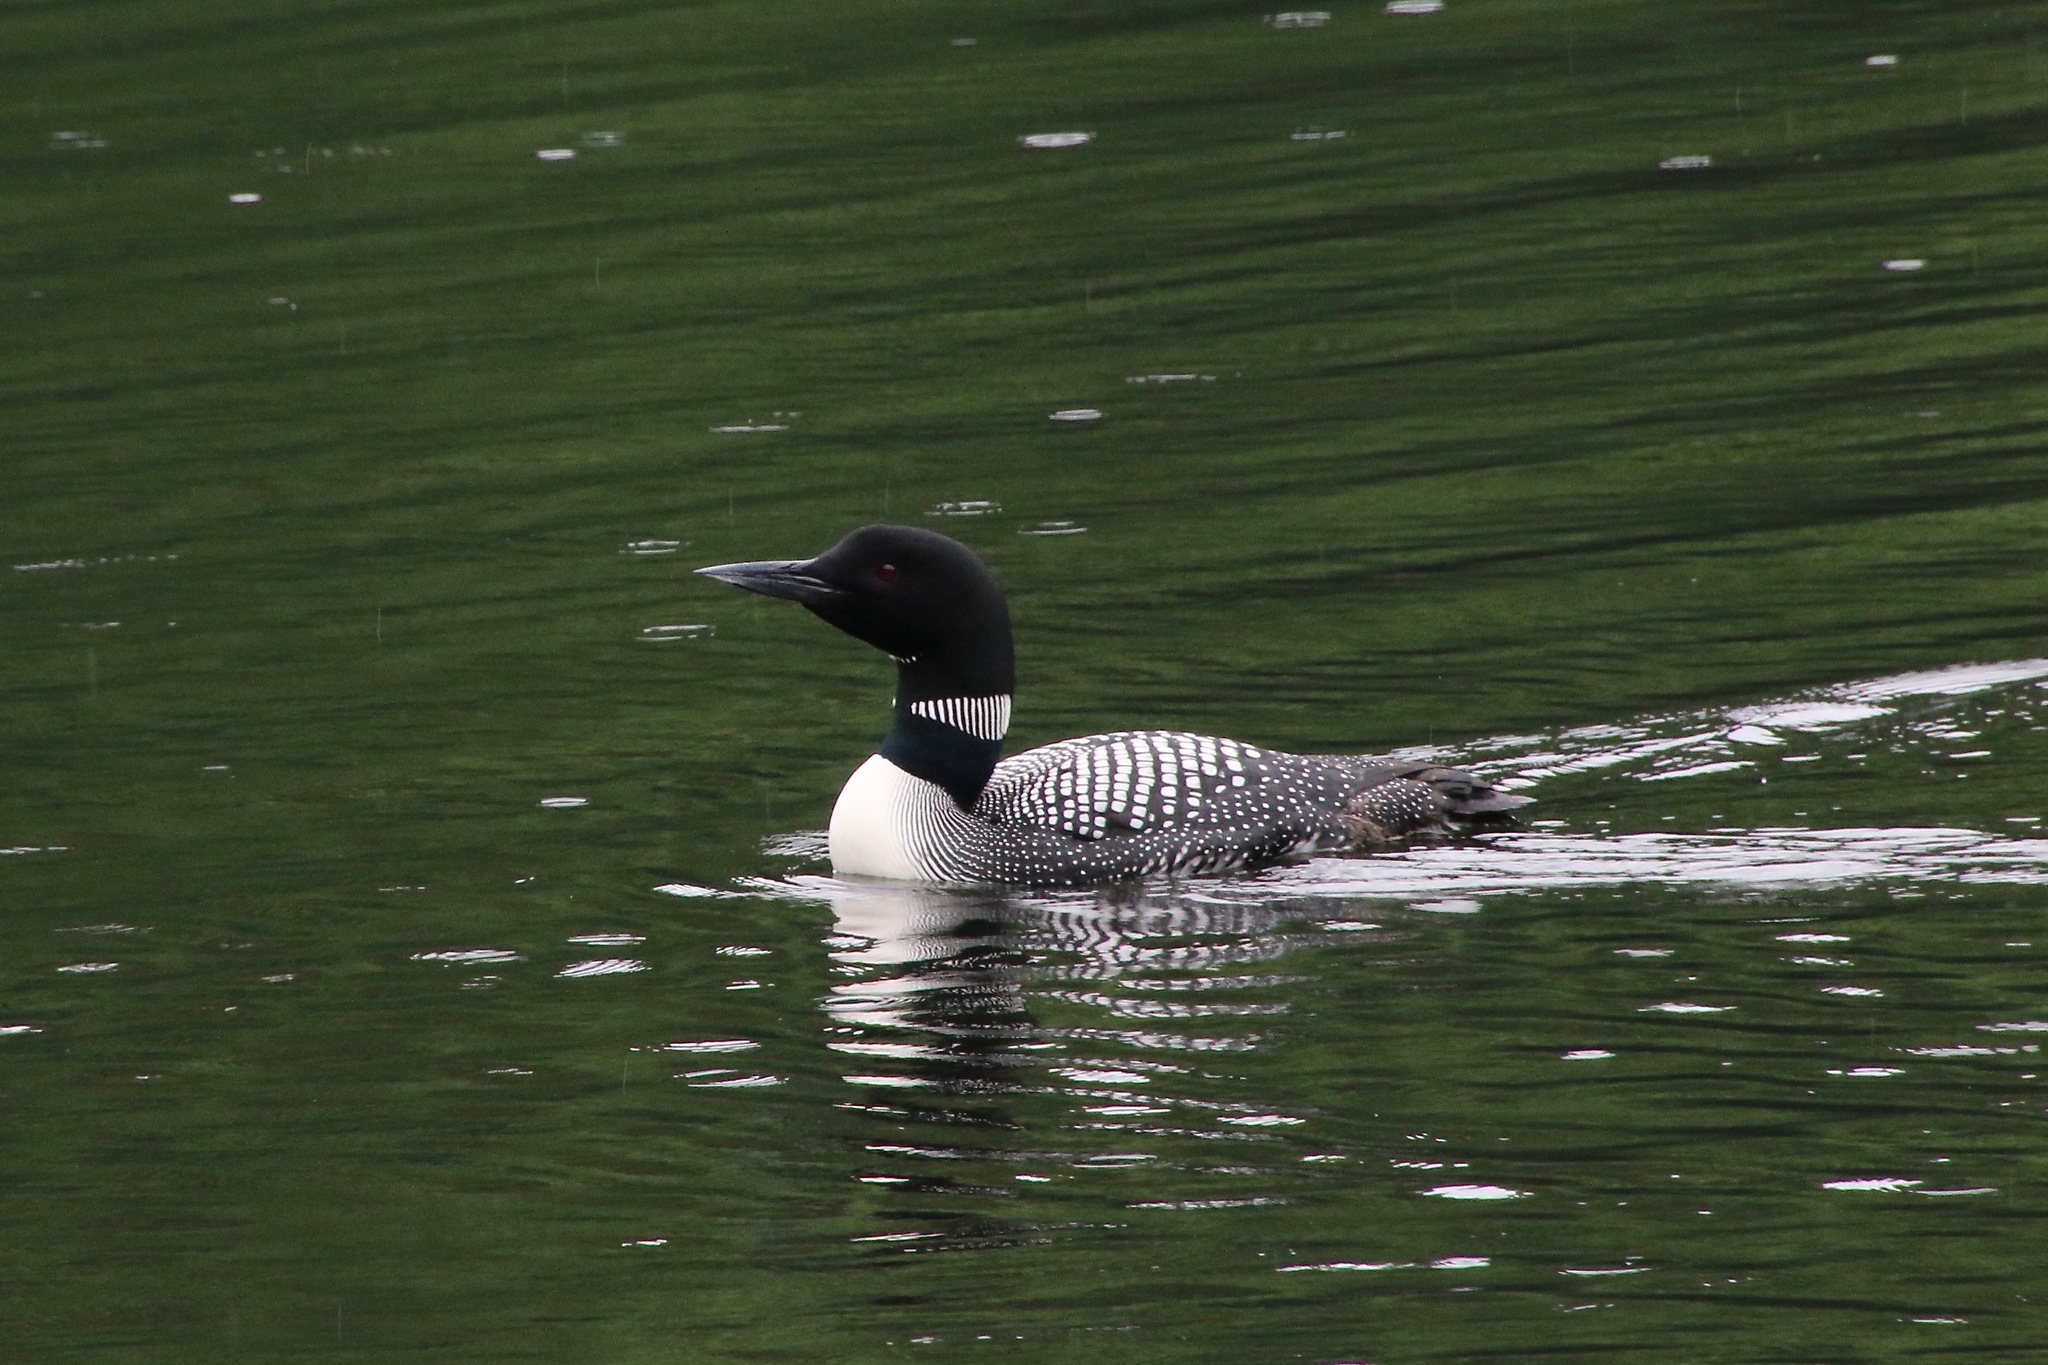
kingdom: Animalia
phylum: Chordata
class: Aves
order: Gaviiformes
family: Gaviidae
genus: Gavia
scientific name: Gavia immer
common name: Common loon
